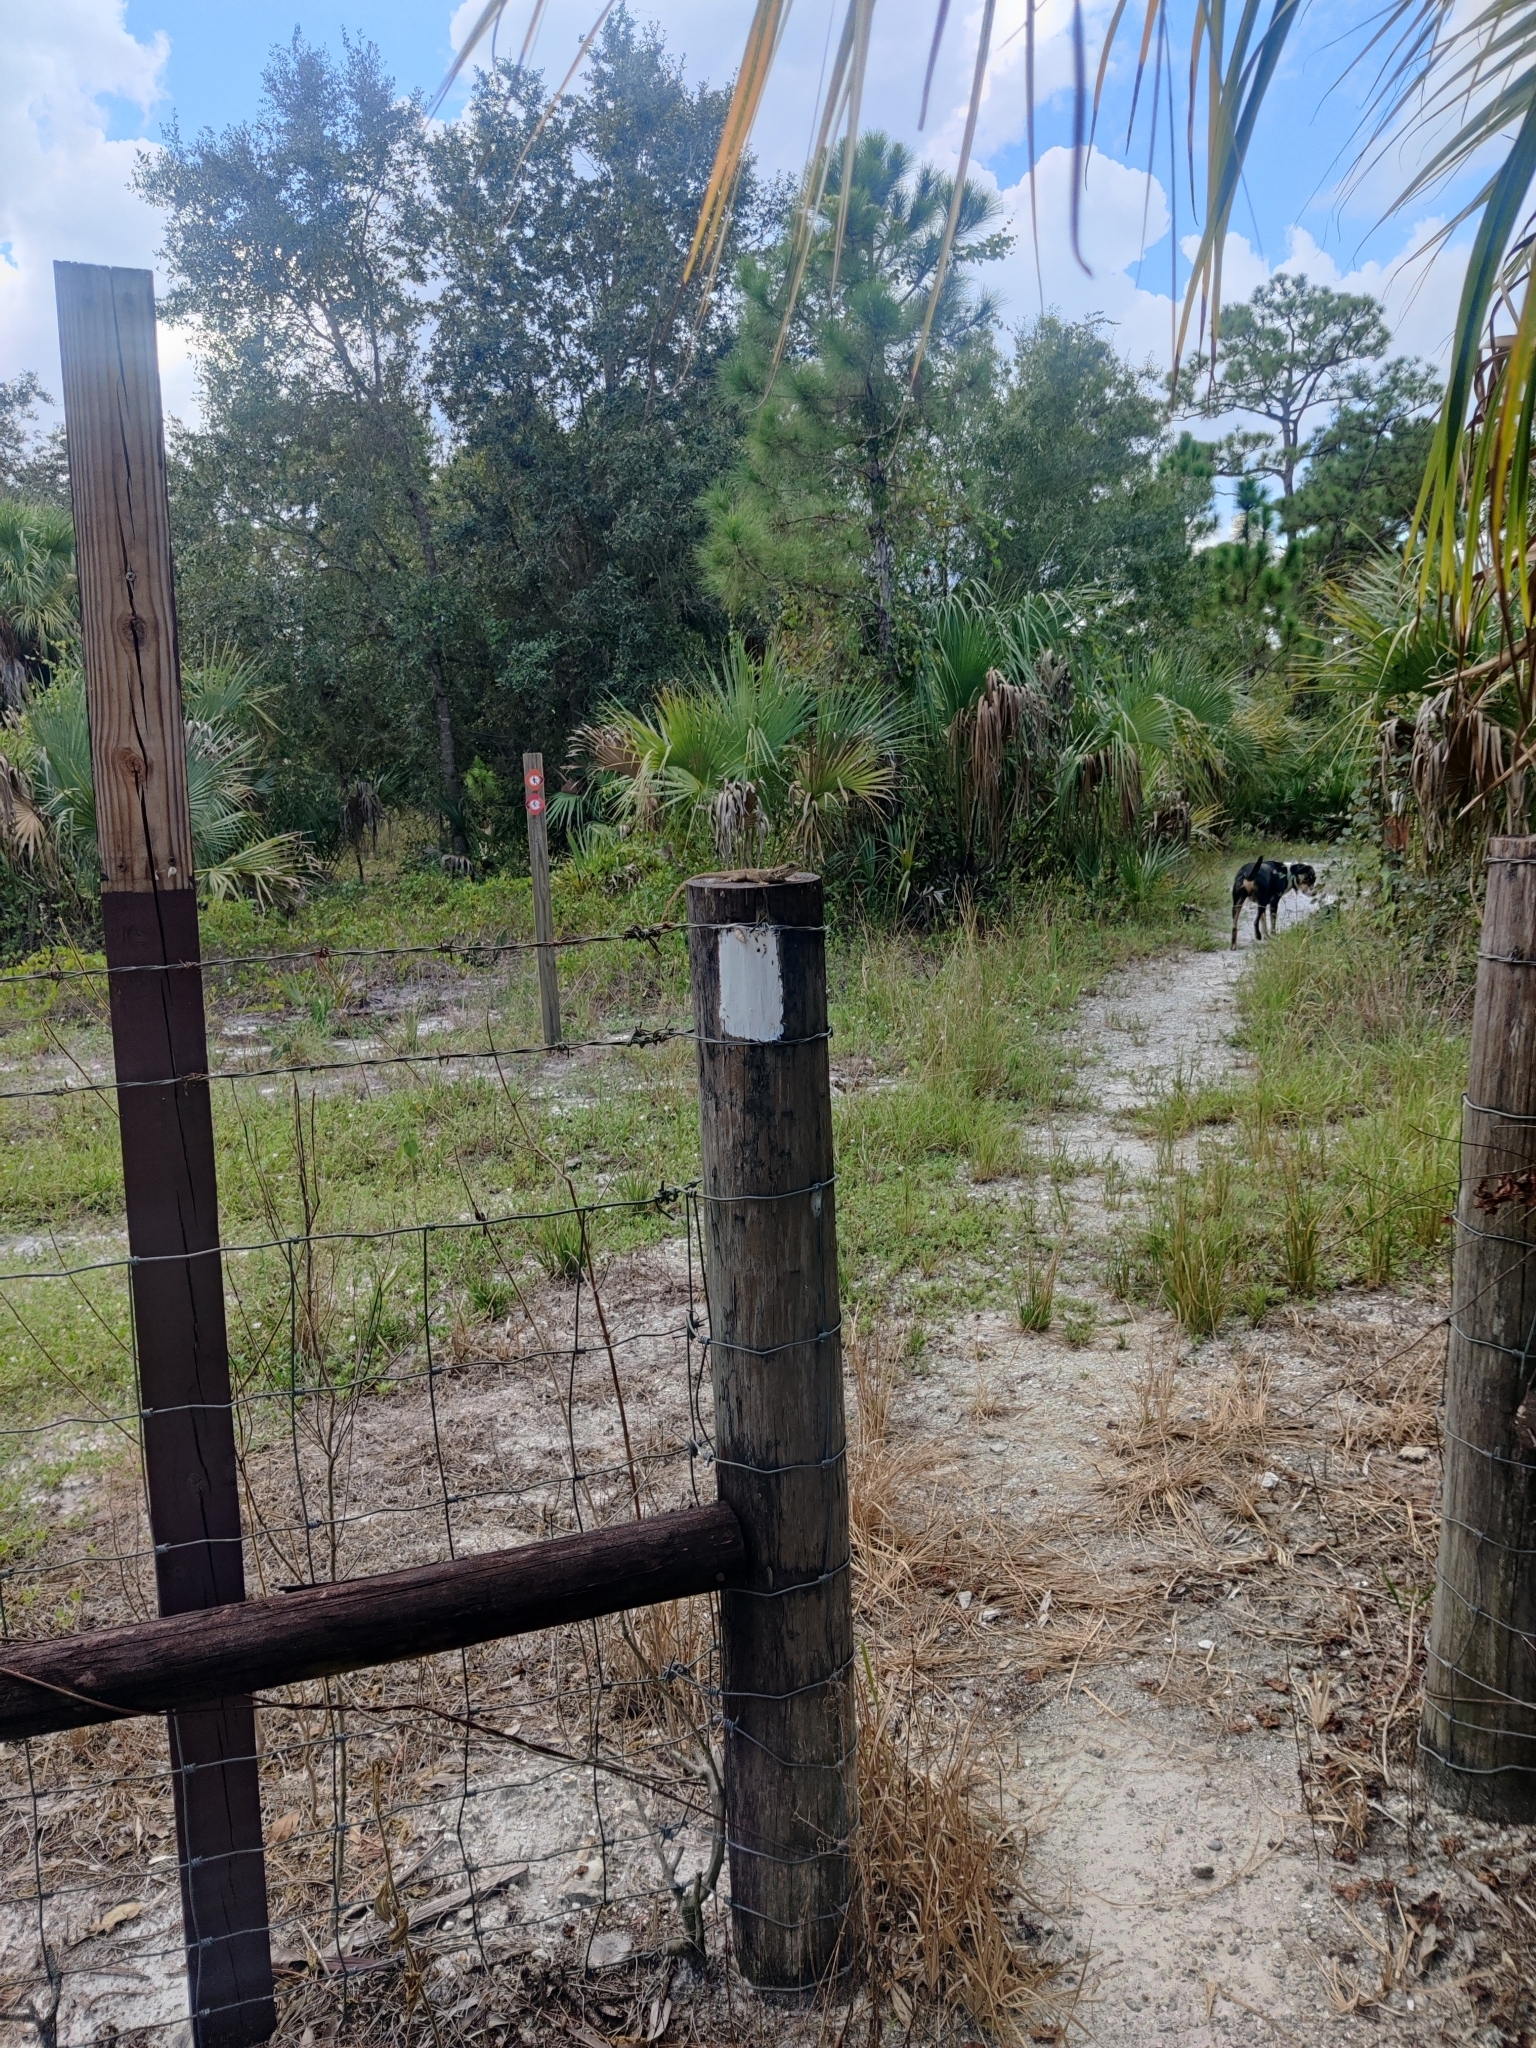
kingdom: Animalia
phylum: Chordata
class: Squamata
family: Agamidae
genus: Agama
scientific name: Agama picticauda
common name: Red-headed agama
